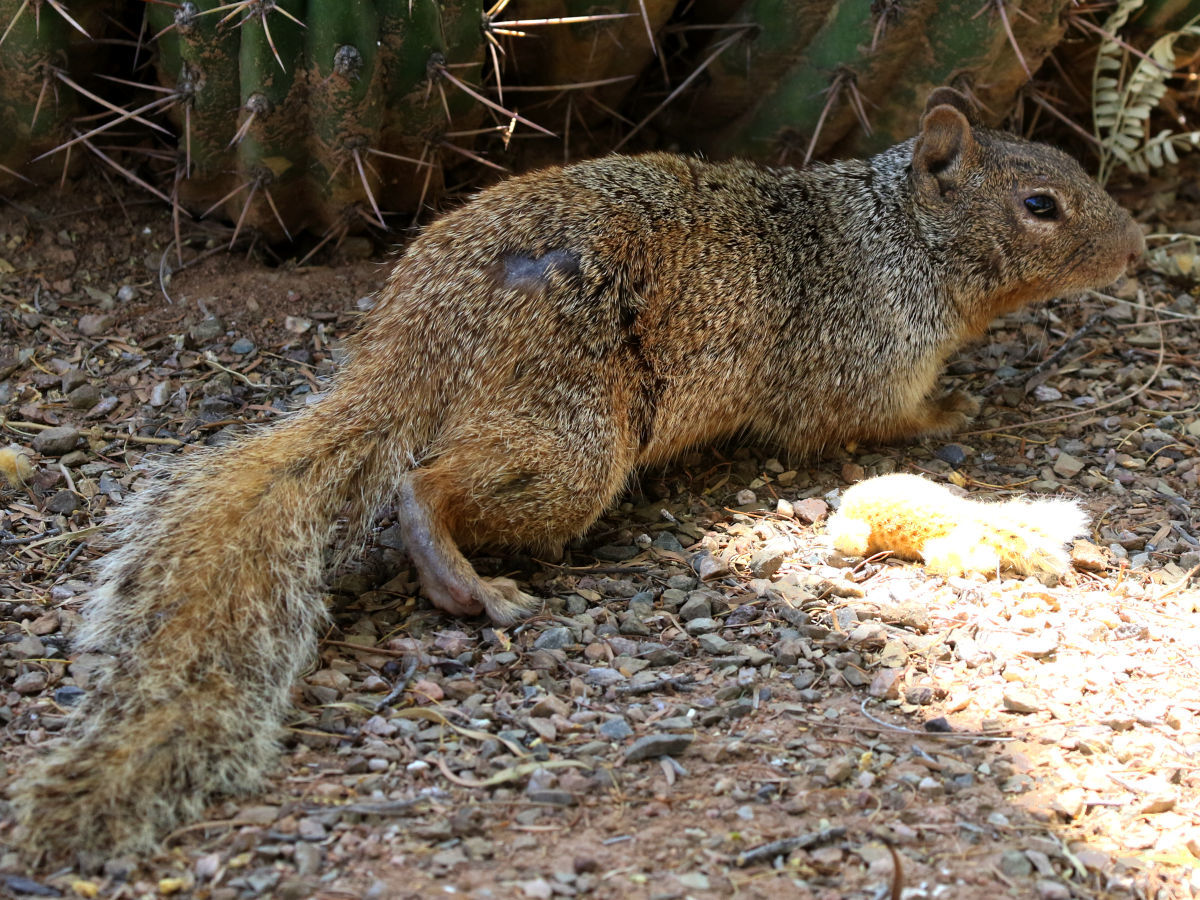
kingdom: Animalia
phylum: Chordata
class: Mammalia
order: Rodentia
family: Sciuridae
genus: Otospermophilus
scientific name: Otospermophilus variegatus
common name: Rock squirrel
